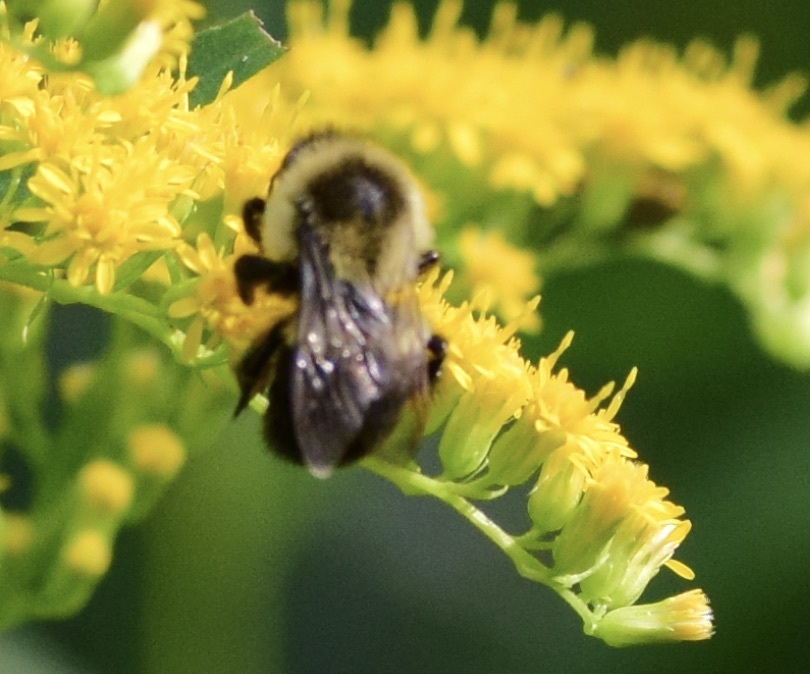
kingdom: Animalia
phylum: Arthropoda
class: Insecta
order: Hymenoptera
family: Apidae
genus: Bombus
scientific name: Bombus impatiens
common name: Common eastern bumble bee
